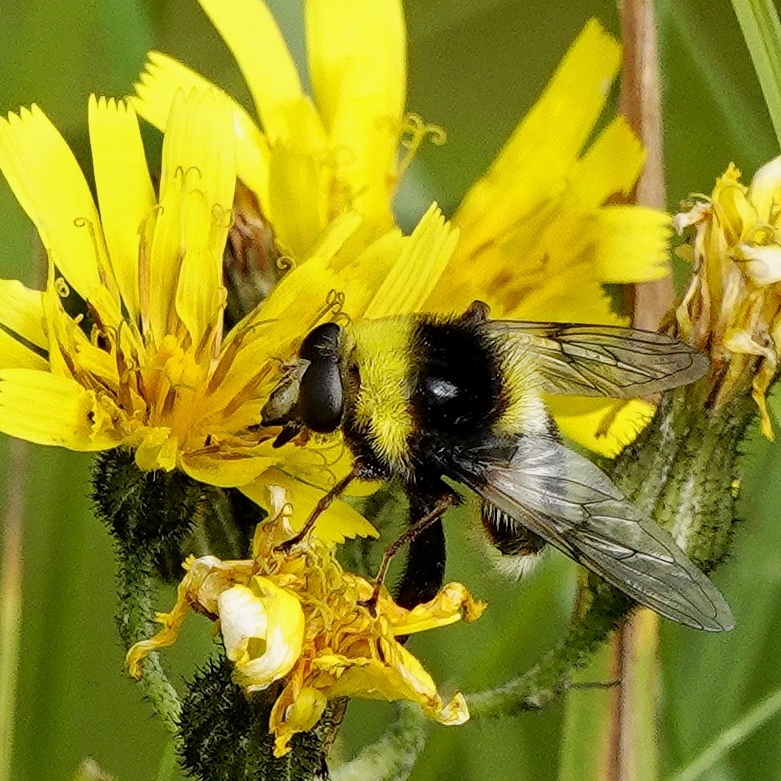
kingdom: Animalia
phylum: Arthropoda
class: Insecta
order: Diptera
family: Syrphidae
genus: Sericomyia
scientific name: Sericomyia bombiformis
